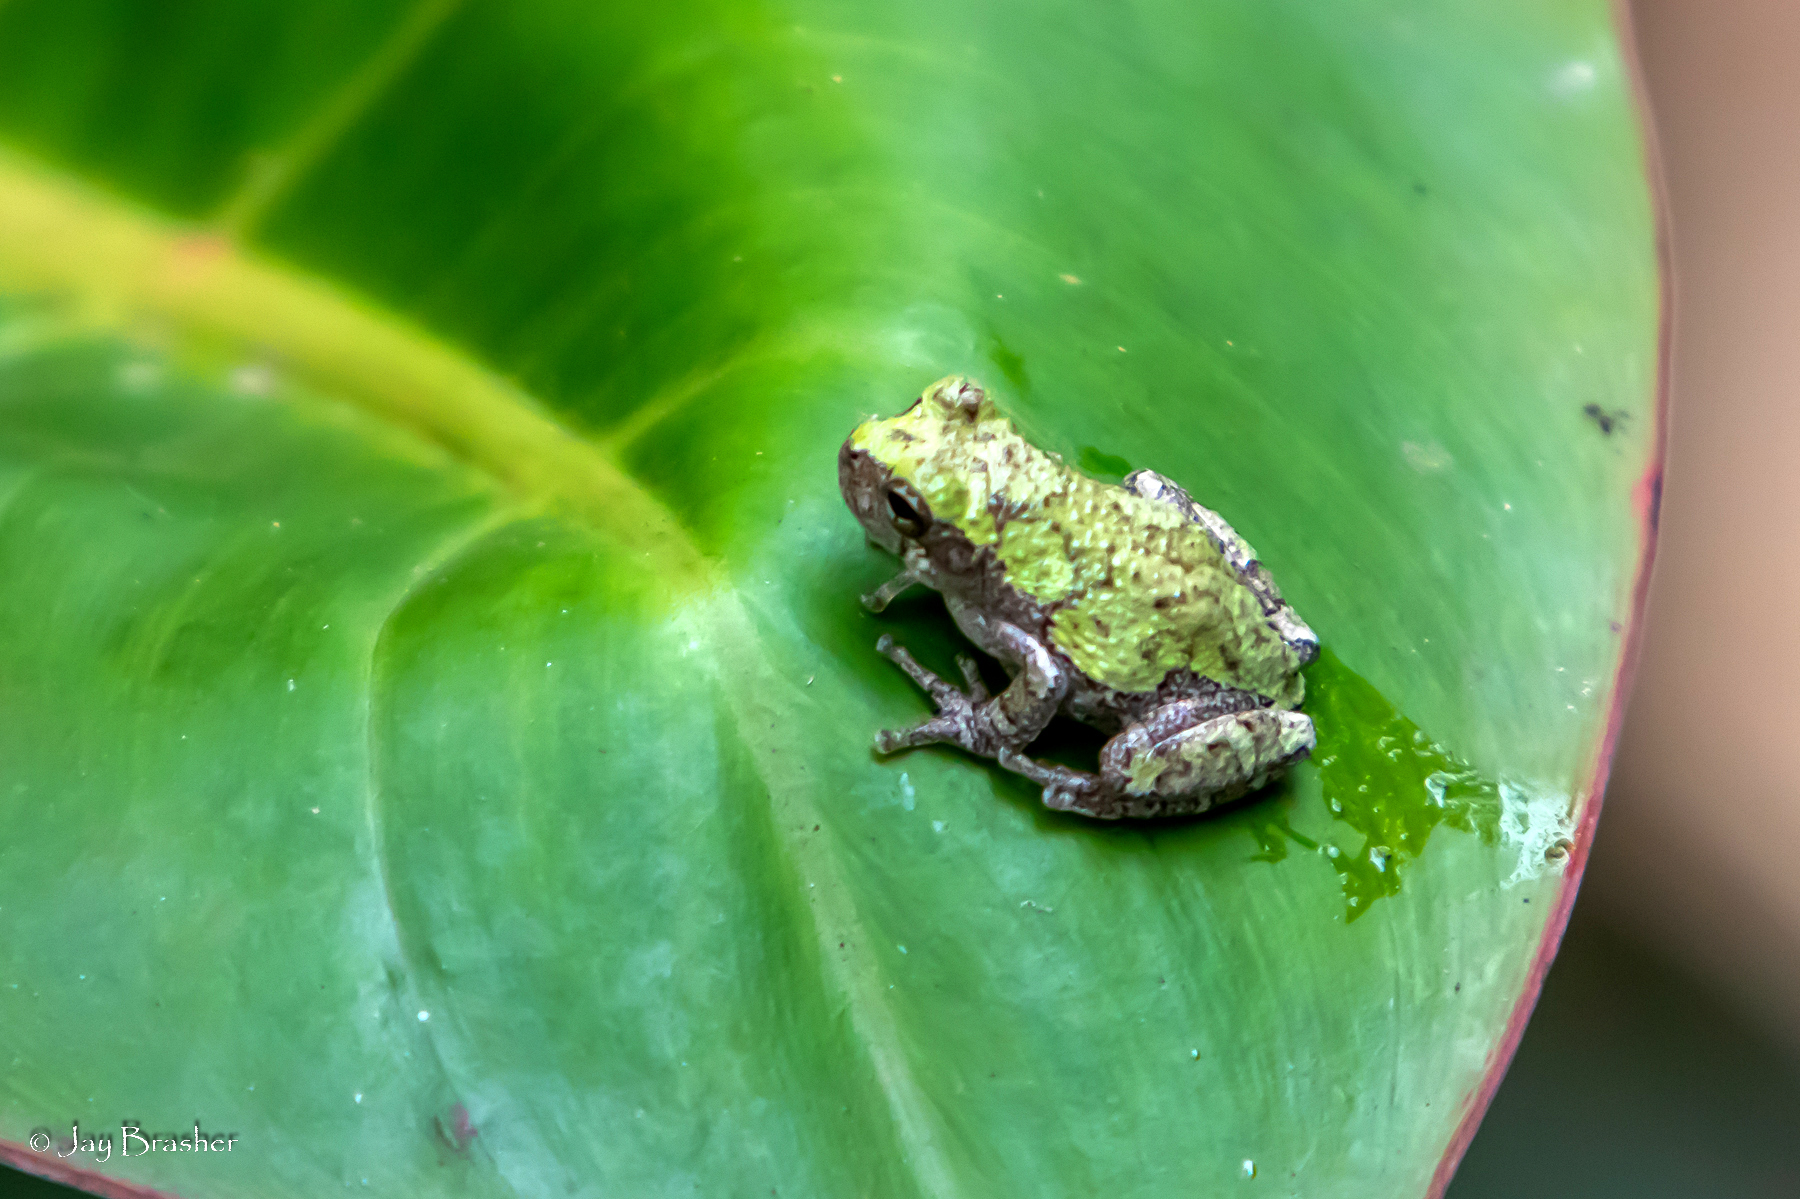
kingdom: Animalia
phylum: Chordata
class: Amphibia
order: Anura
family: Hylidae
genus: Dryophytes
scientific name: Dryophytes chrysoscelis
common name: Cope's gray treefrog
